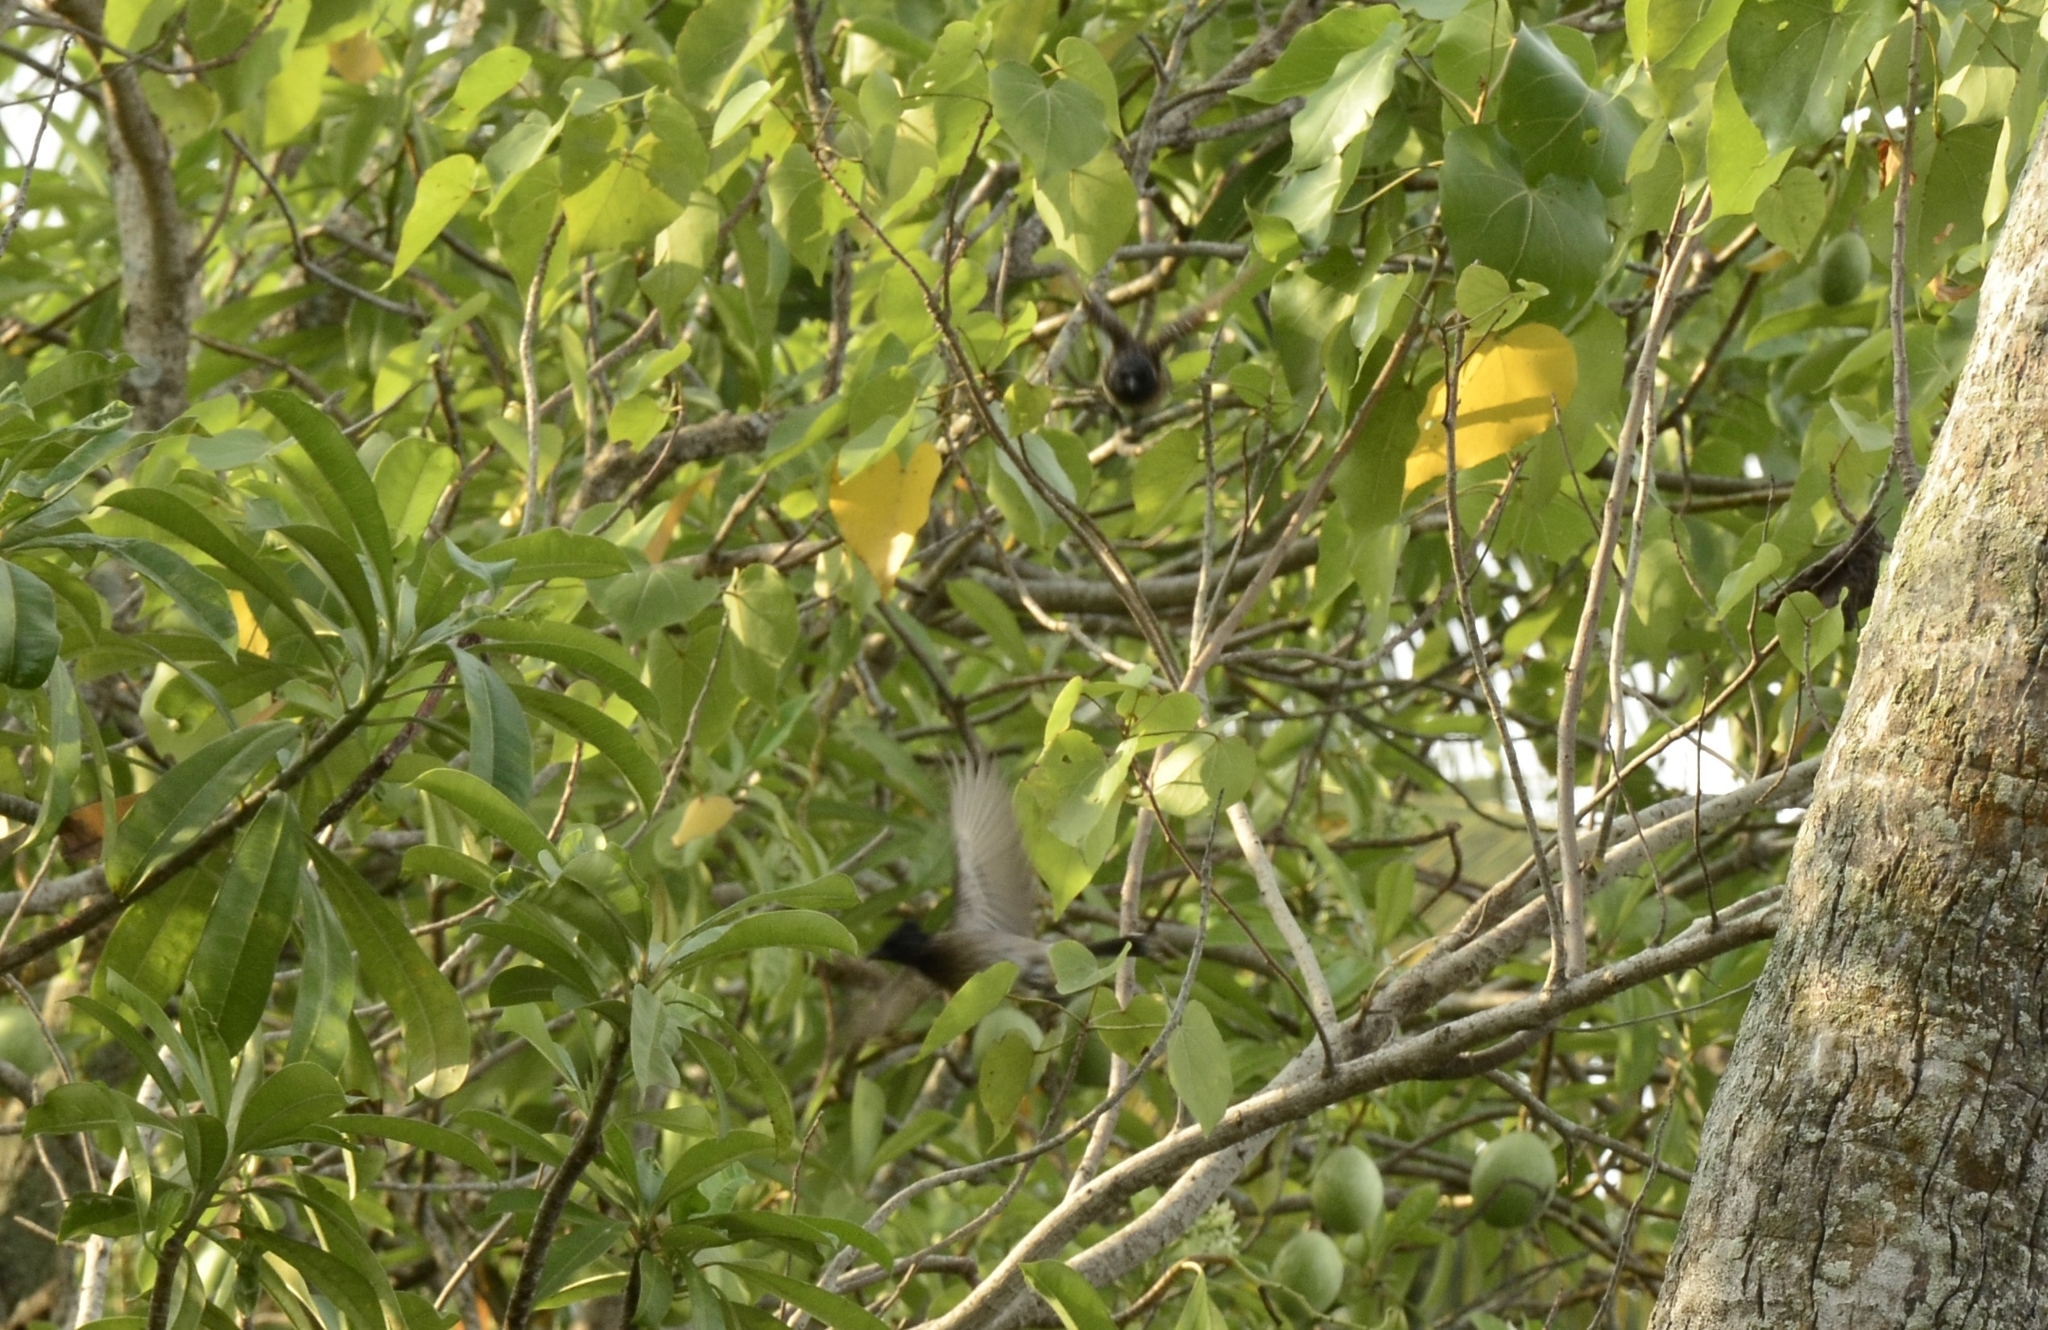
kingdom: Animalia
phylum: Chordata
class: Aves
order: Passeriformes
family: Pycnonotidae
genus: Pycnonotus
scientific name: Pycnonotus cafer
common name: Red-vented bulbul
